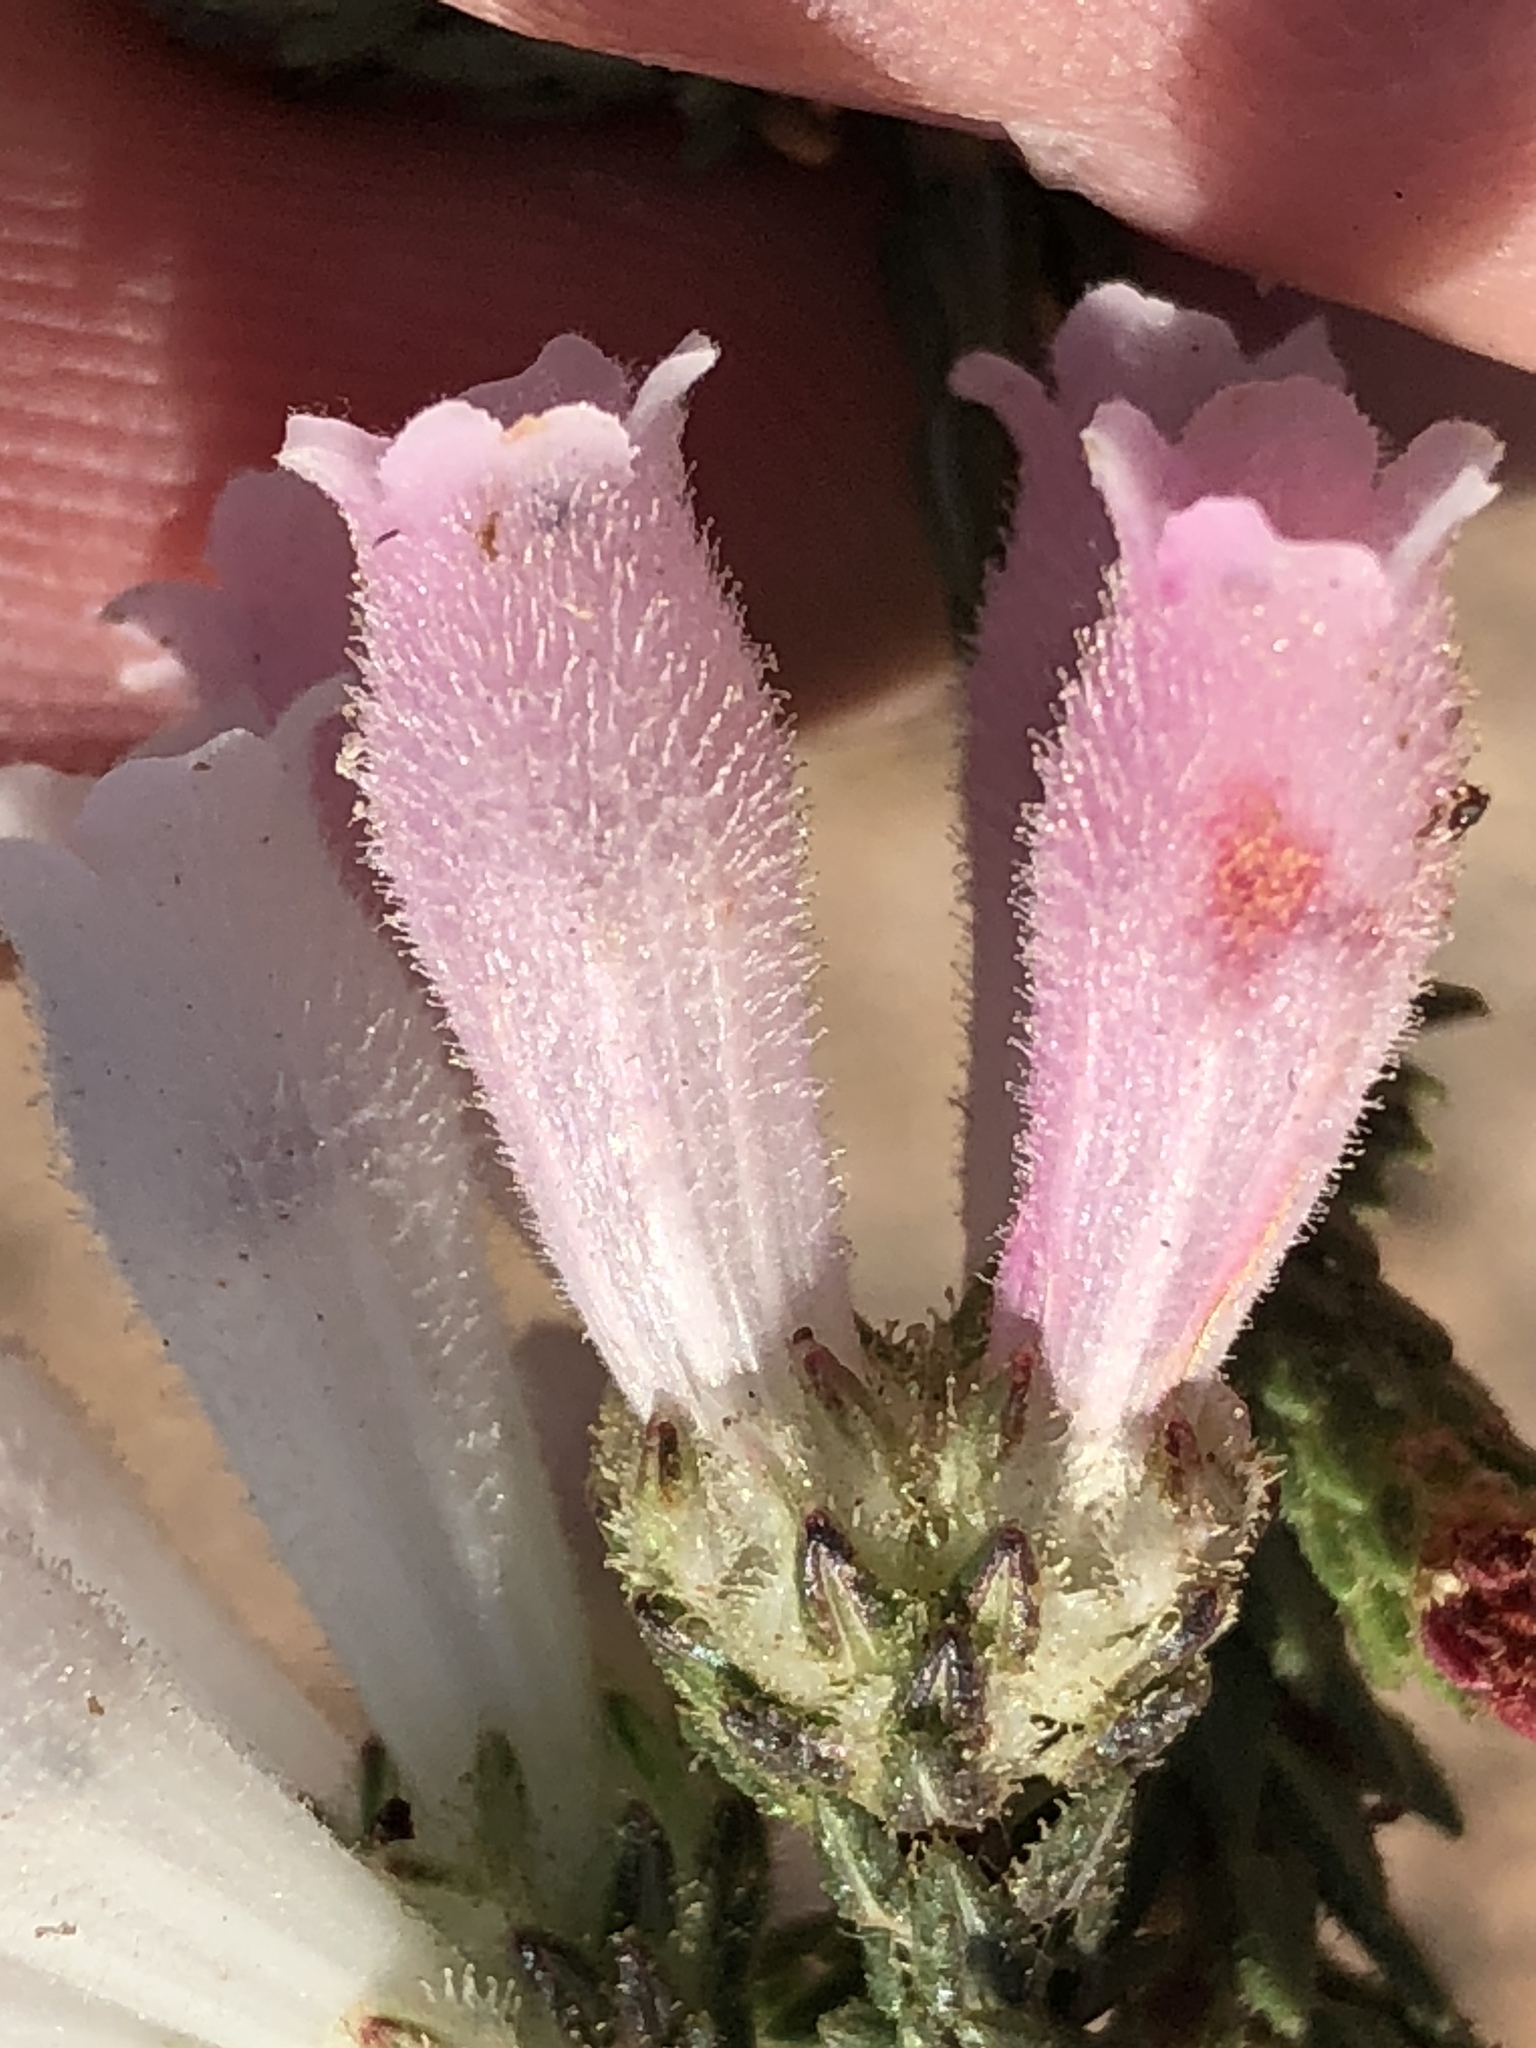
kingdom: Plantae
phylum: Tracheophyta
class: Magnoliopsida
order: Ericales
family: Ericaceae
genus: Erica
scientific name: Erica pectinifolia
